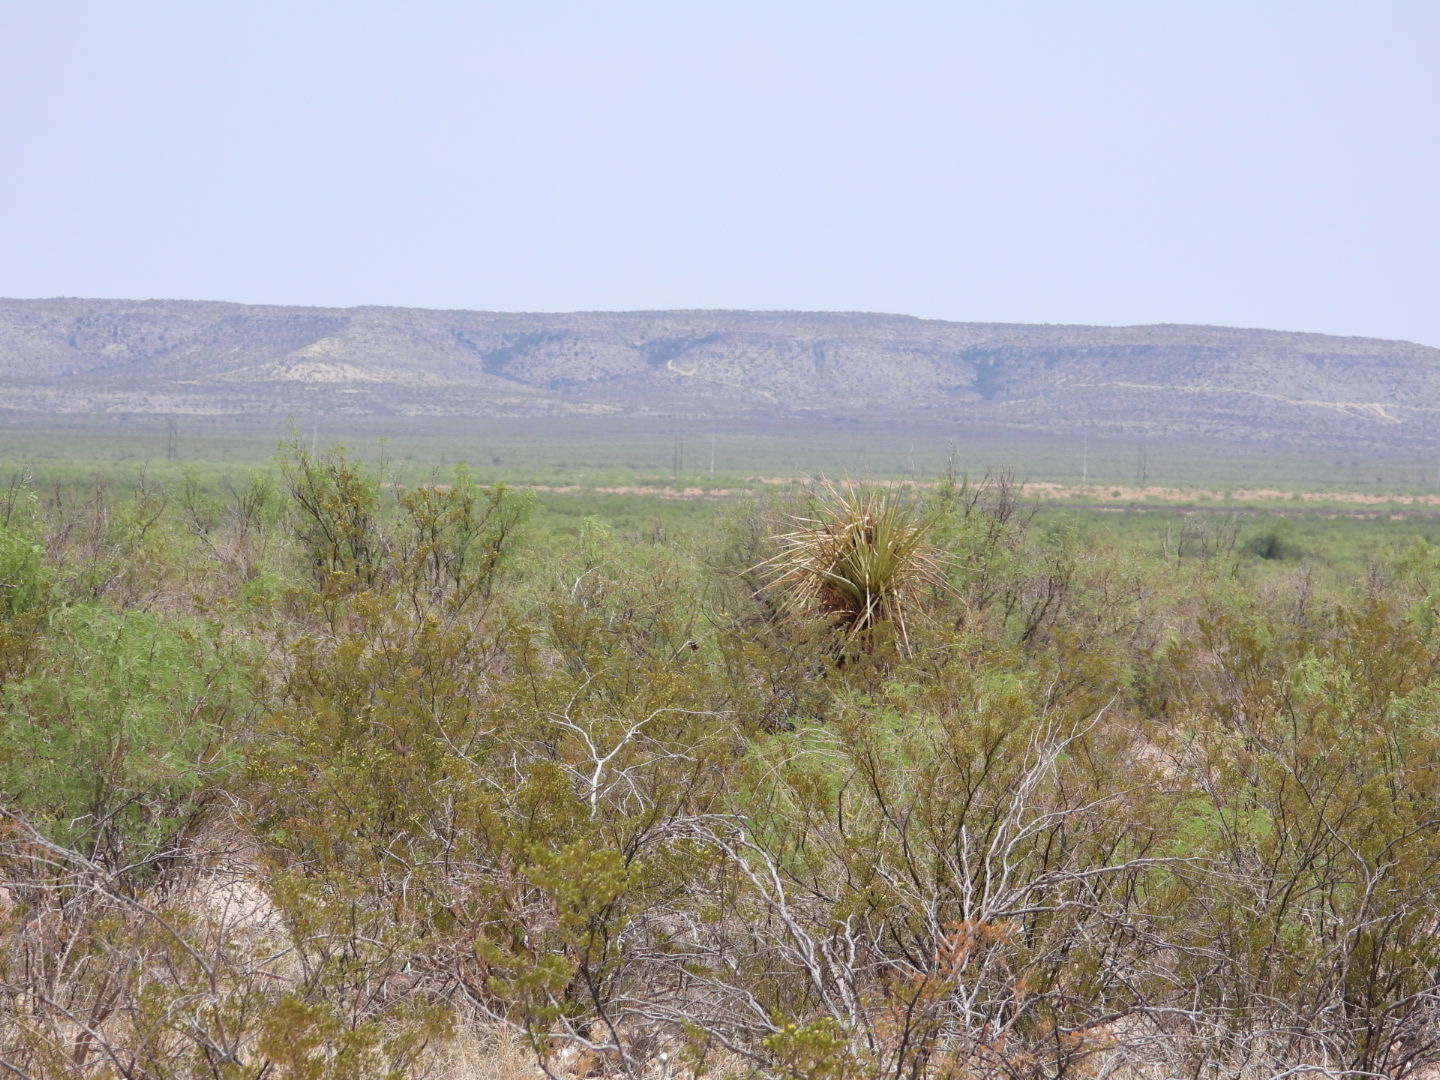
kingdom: Plantae
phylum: Tracheophyta
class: Liliopsida
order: Asparagales
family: Asparagaceae
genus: Yucca
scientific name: Yucca treculiana
